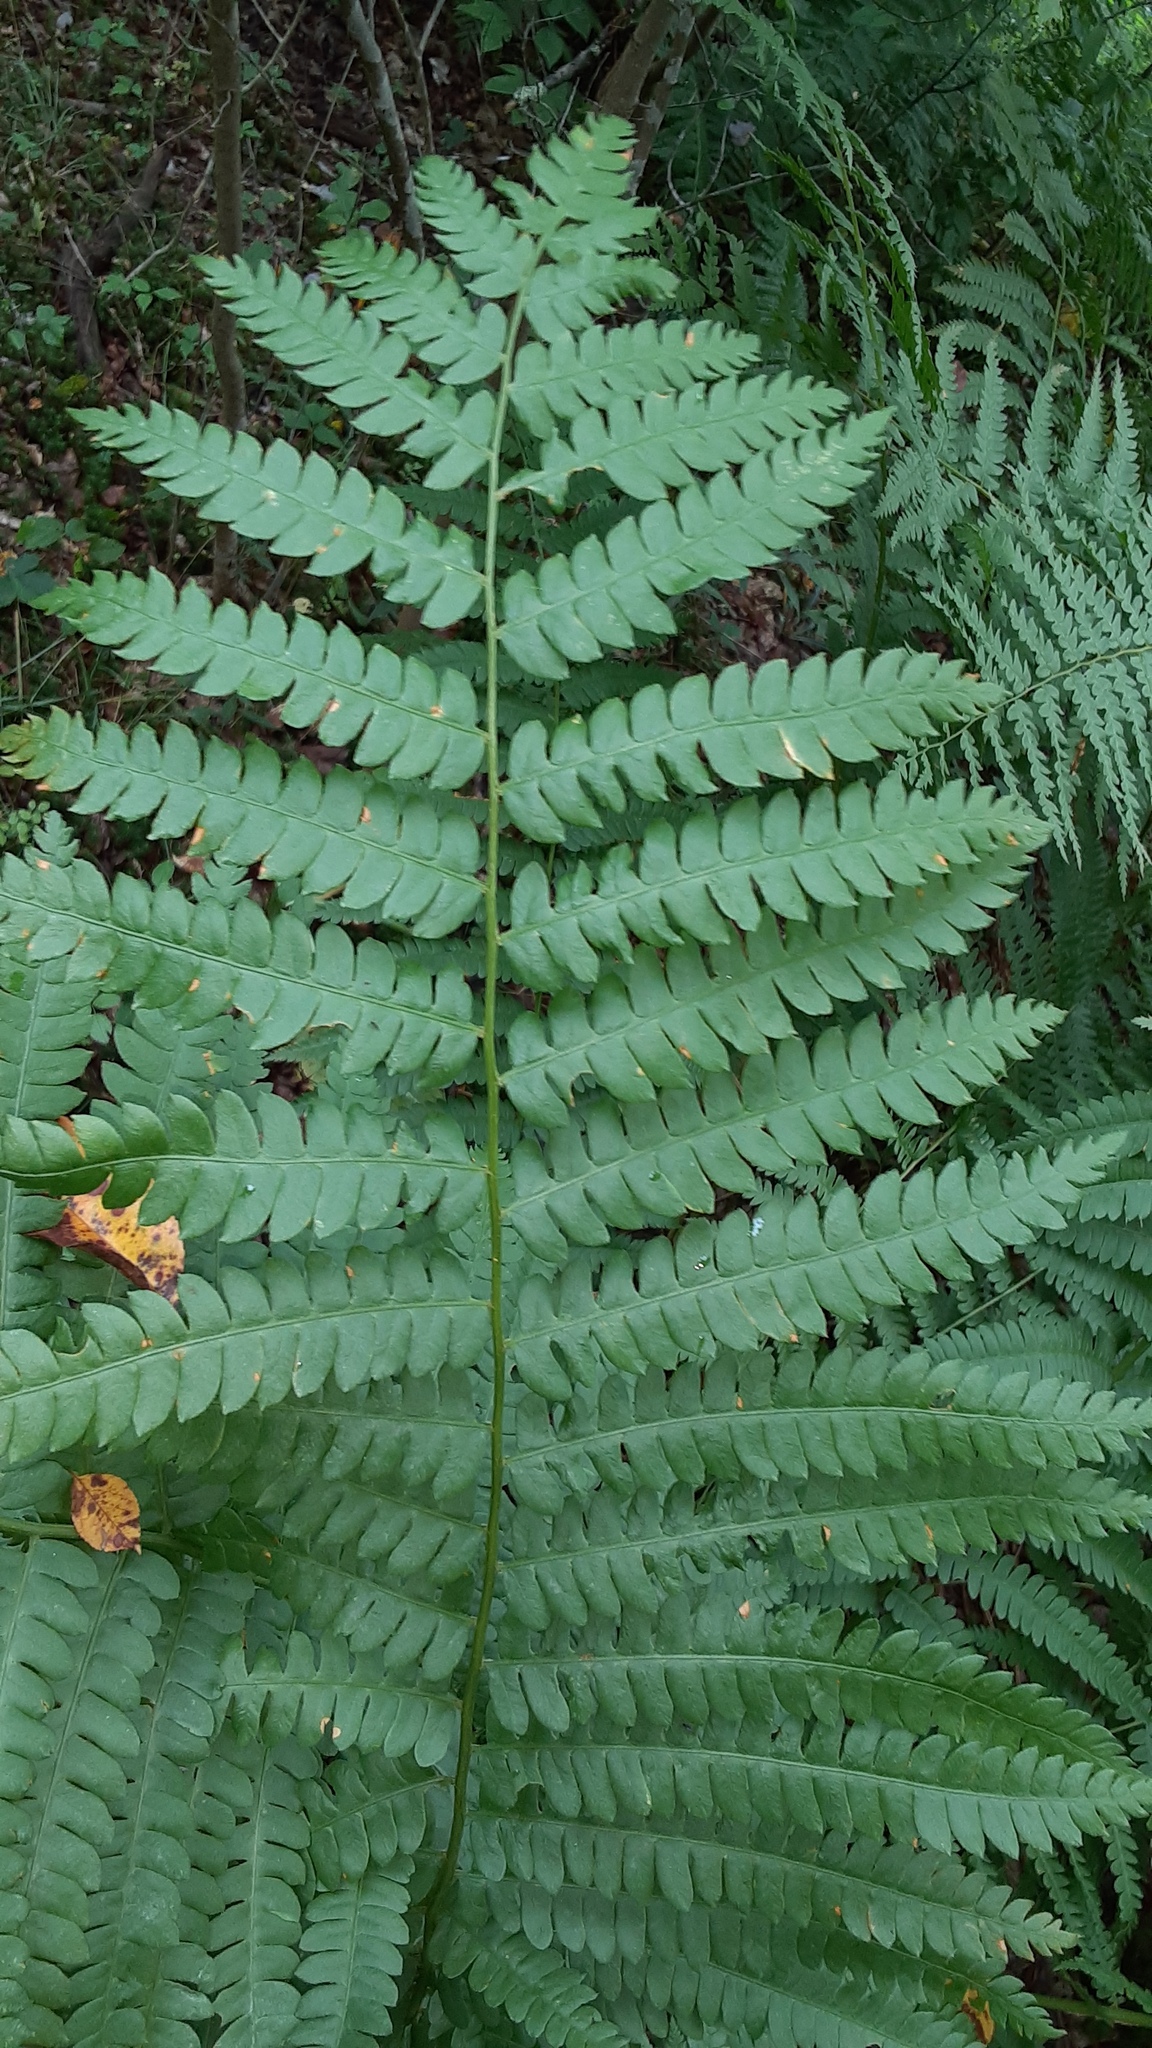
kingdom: Plantae
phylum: Tracheophyta
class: Polypodiopsida
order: Osmundales
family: Osmundaceae
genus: Osmundastrum
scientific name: Osmundastrum cinnamomeum
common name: Cinnamon fern
